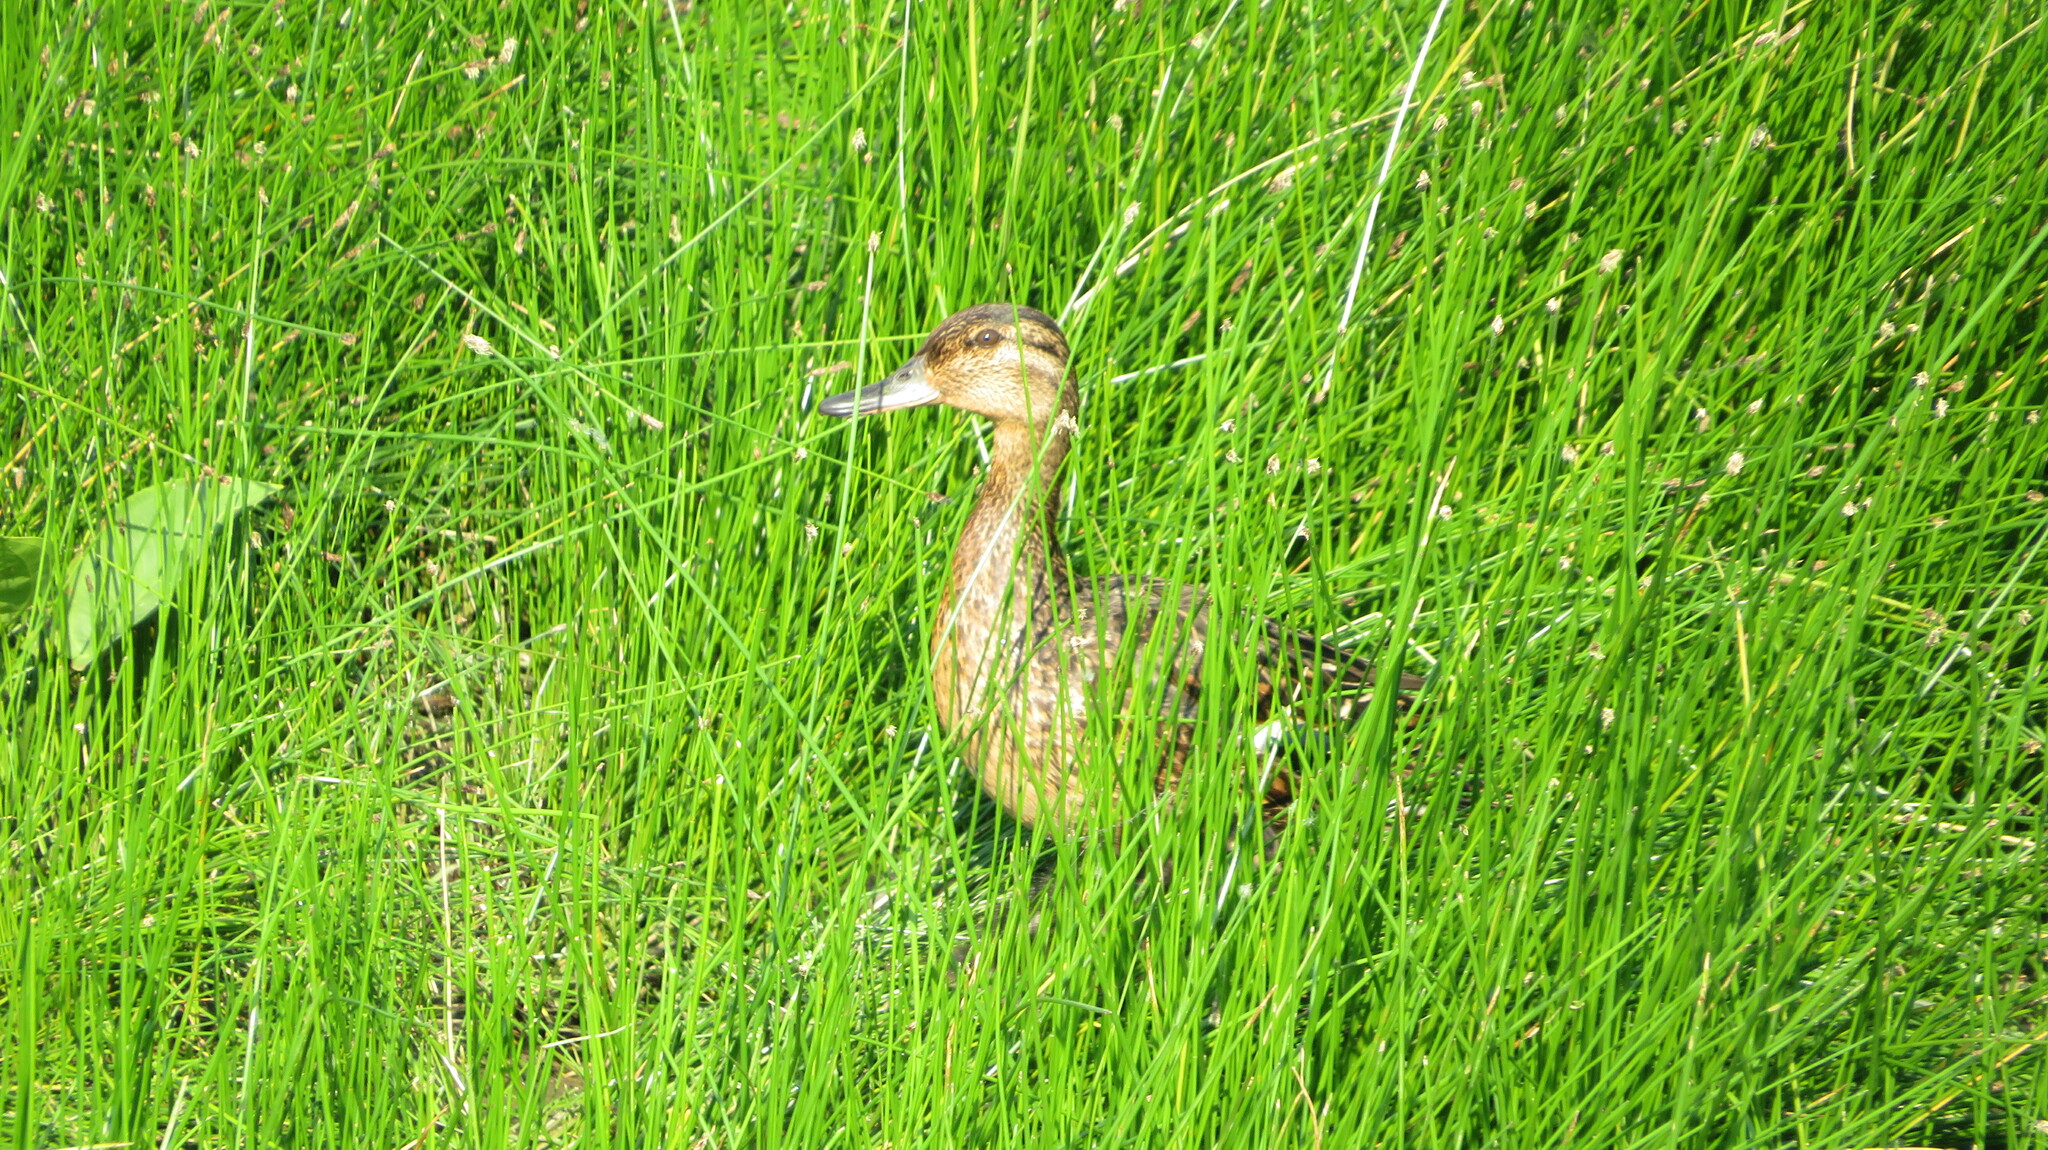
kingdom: Animalia
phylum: Chordata
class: Aves
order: Anseriformes
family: Anatidae
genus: Anas
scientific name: Anas crecca
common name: Eurasian teal
